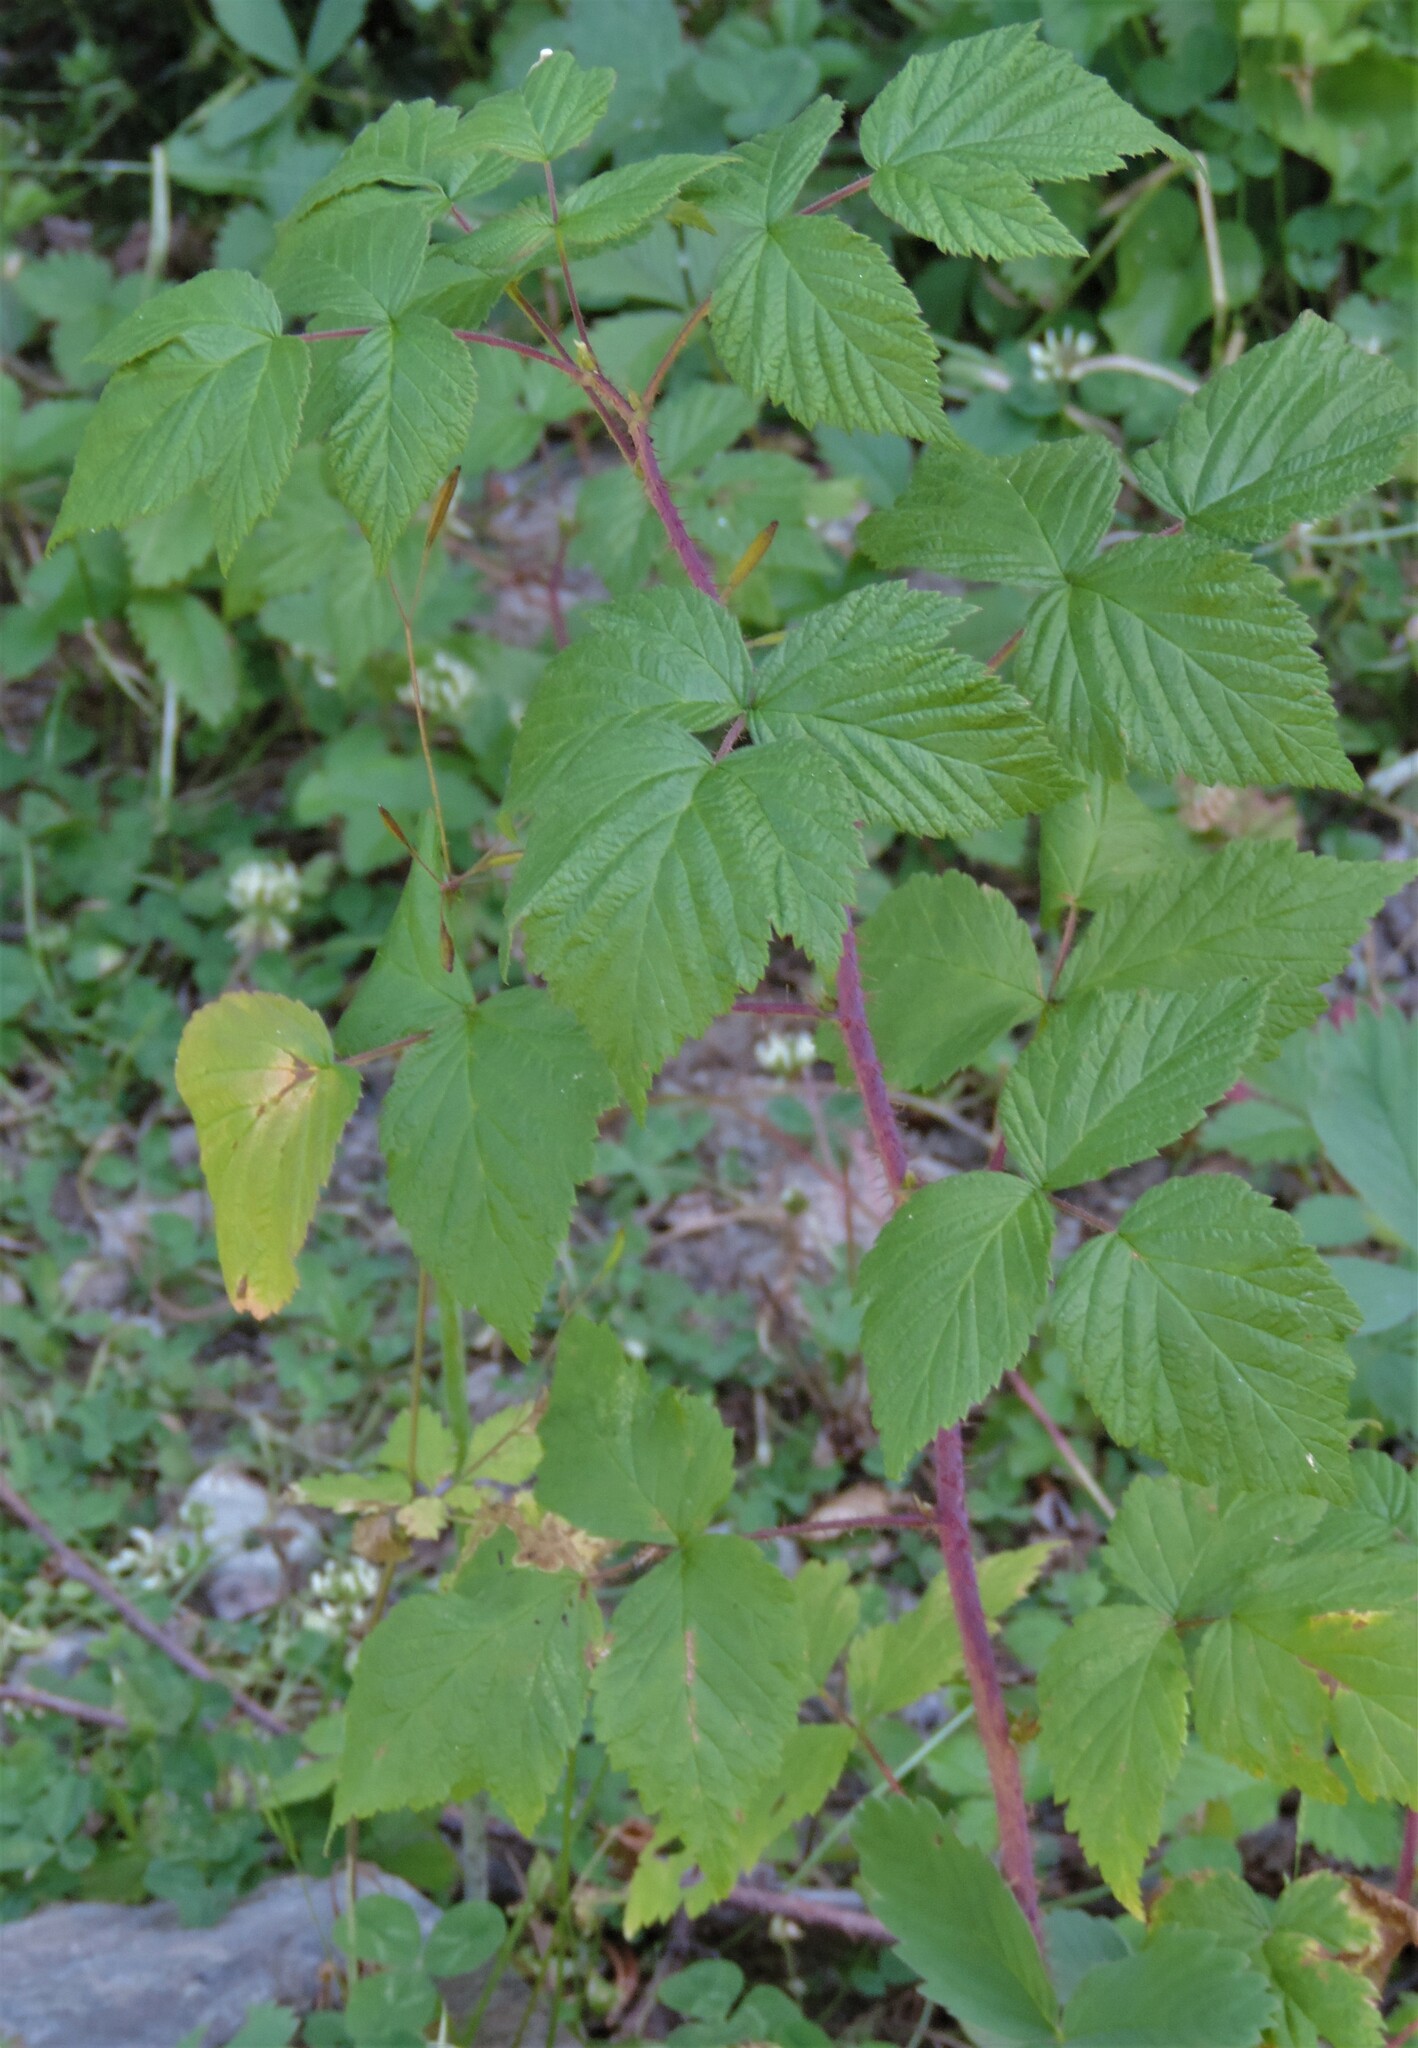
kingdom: Plantae
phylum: Tracheophyta
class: Magnoliopsida
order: Rosales
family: Rosaceae
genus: Rubus
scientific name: Rubus idaeus
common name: Raspberry
